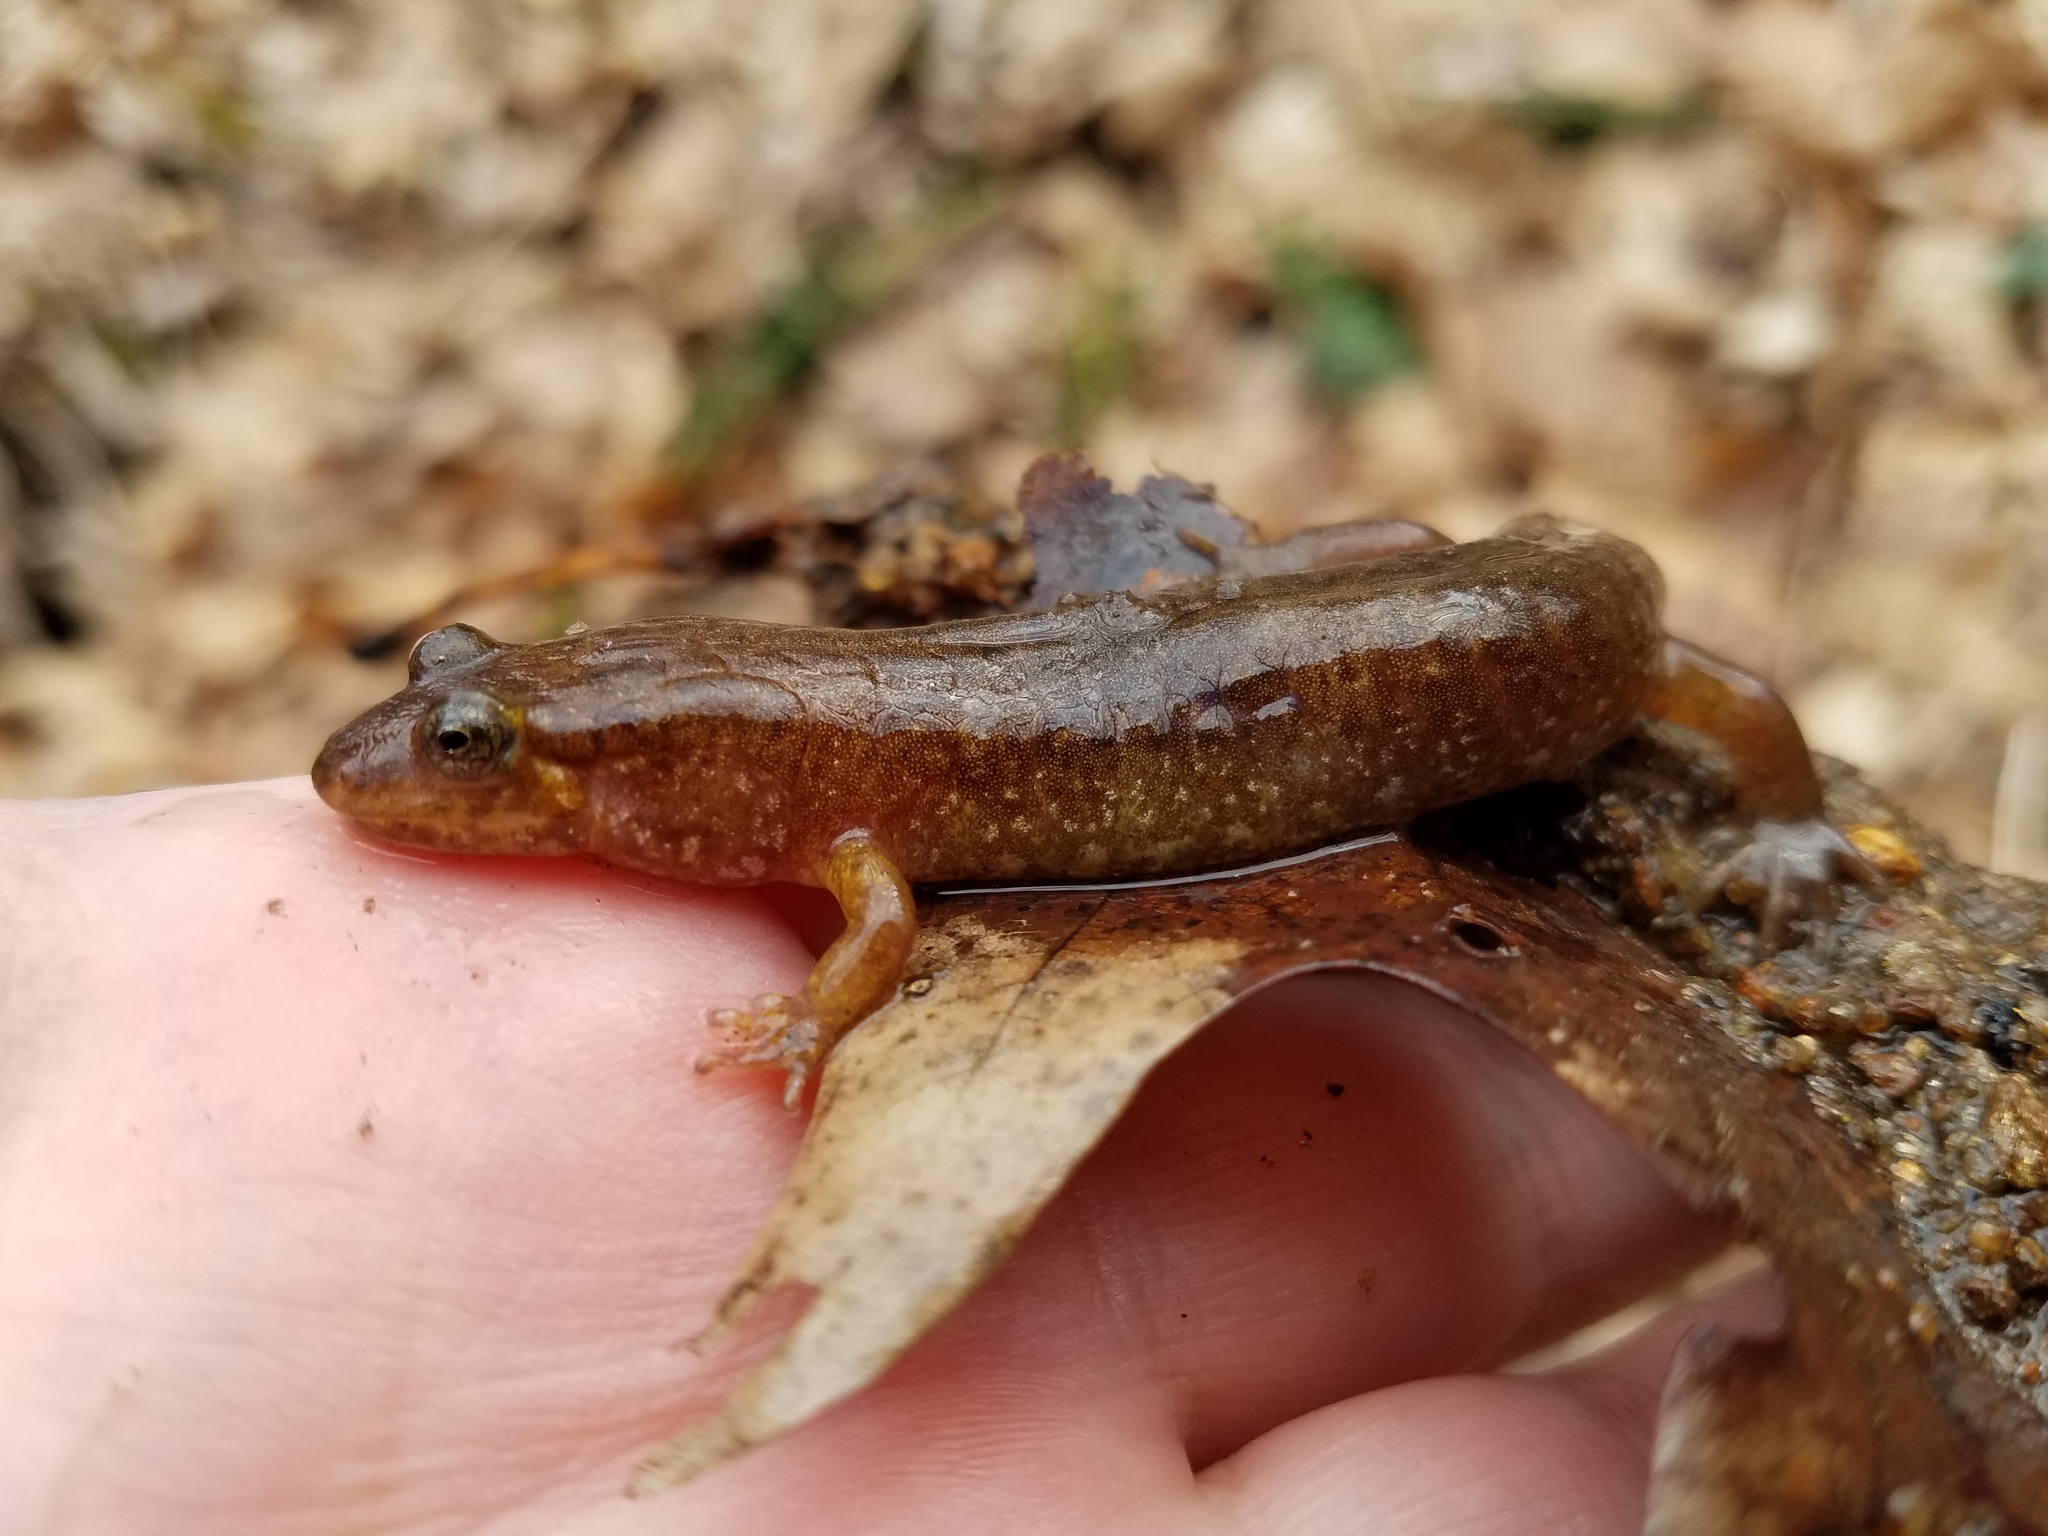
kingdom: Animalia
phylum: Chordata
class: Amphibia
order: Caudata
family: Plethodontidae
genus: Desmognathus
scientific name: Desmognathus monticola
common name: Seal salamander
